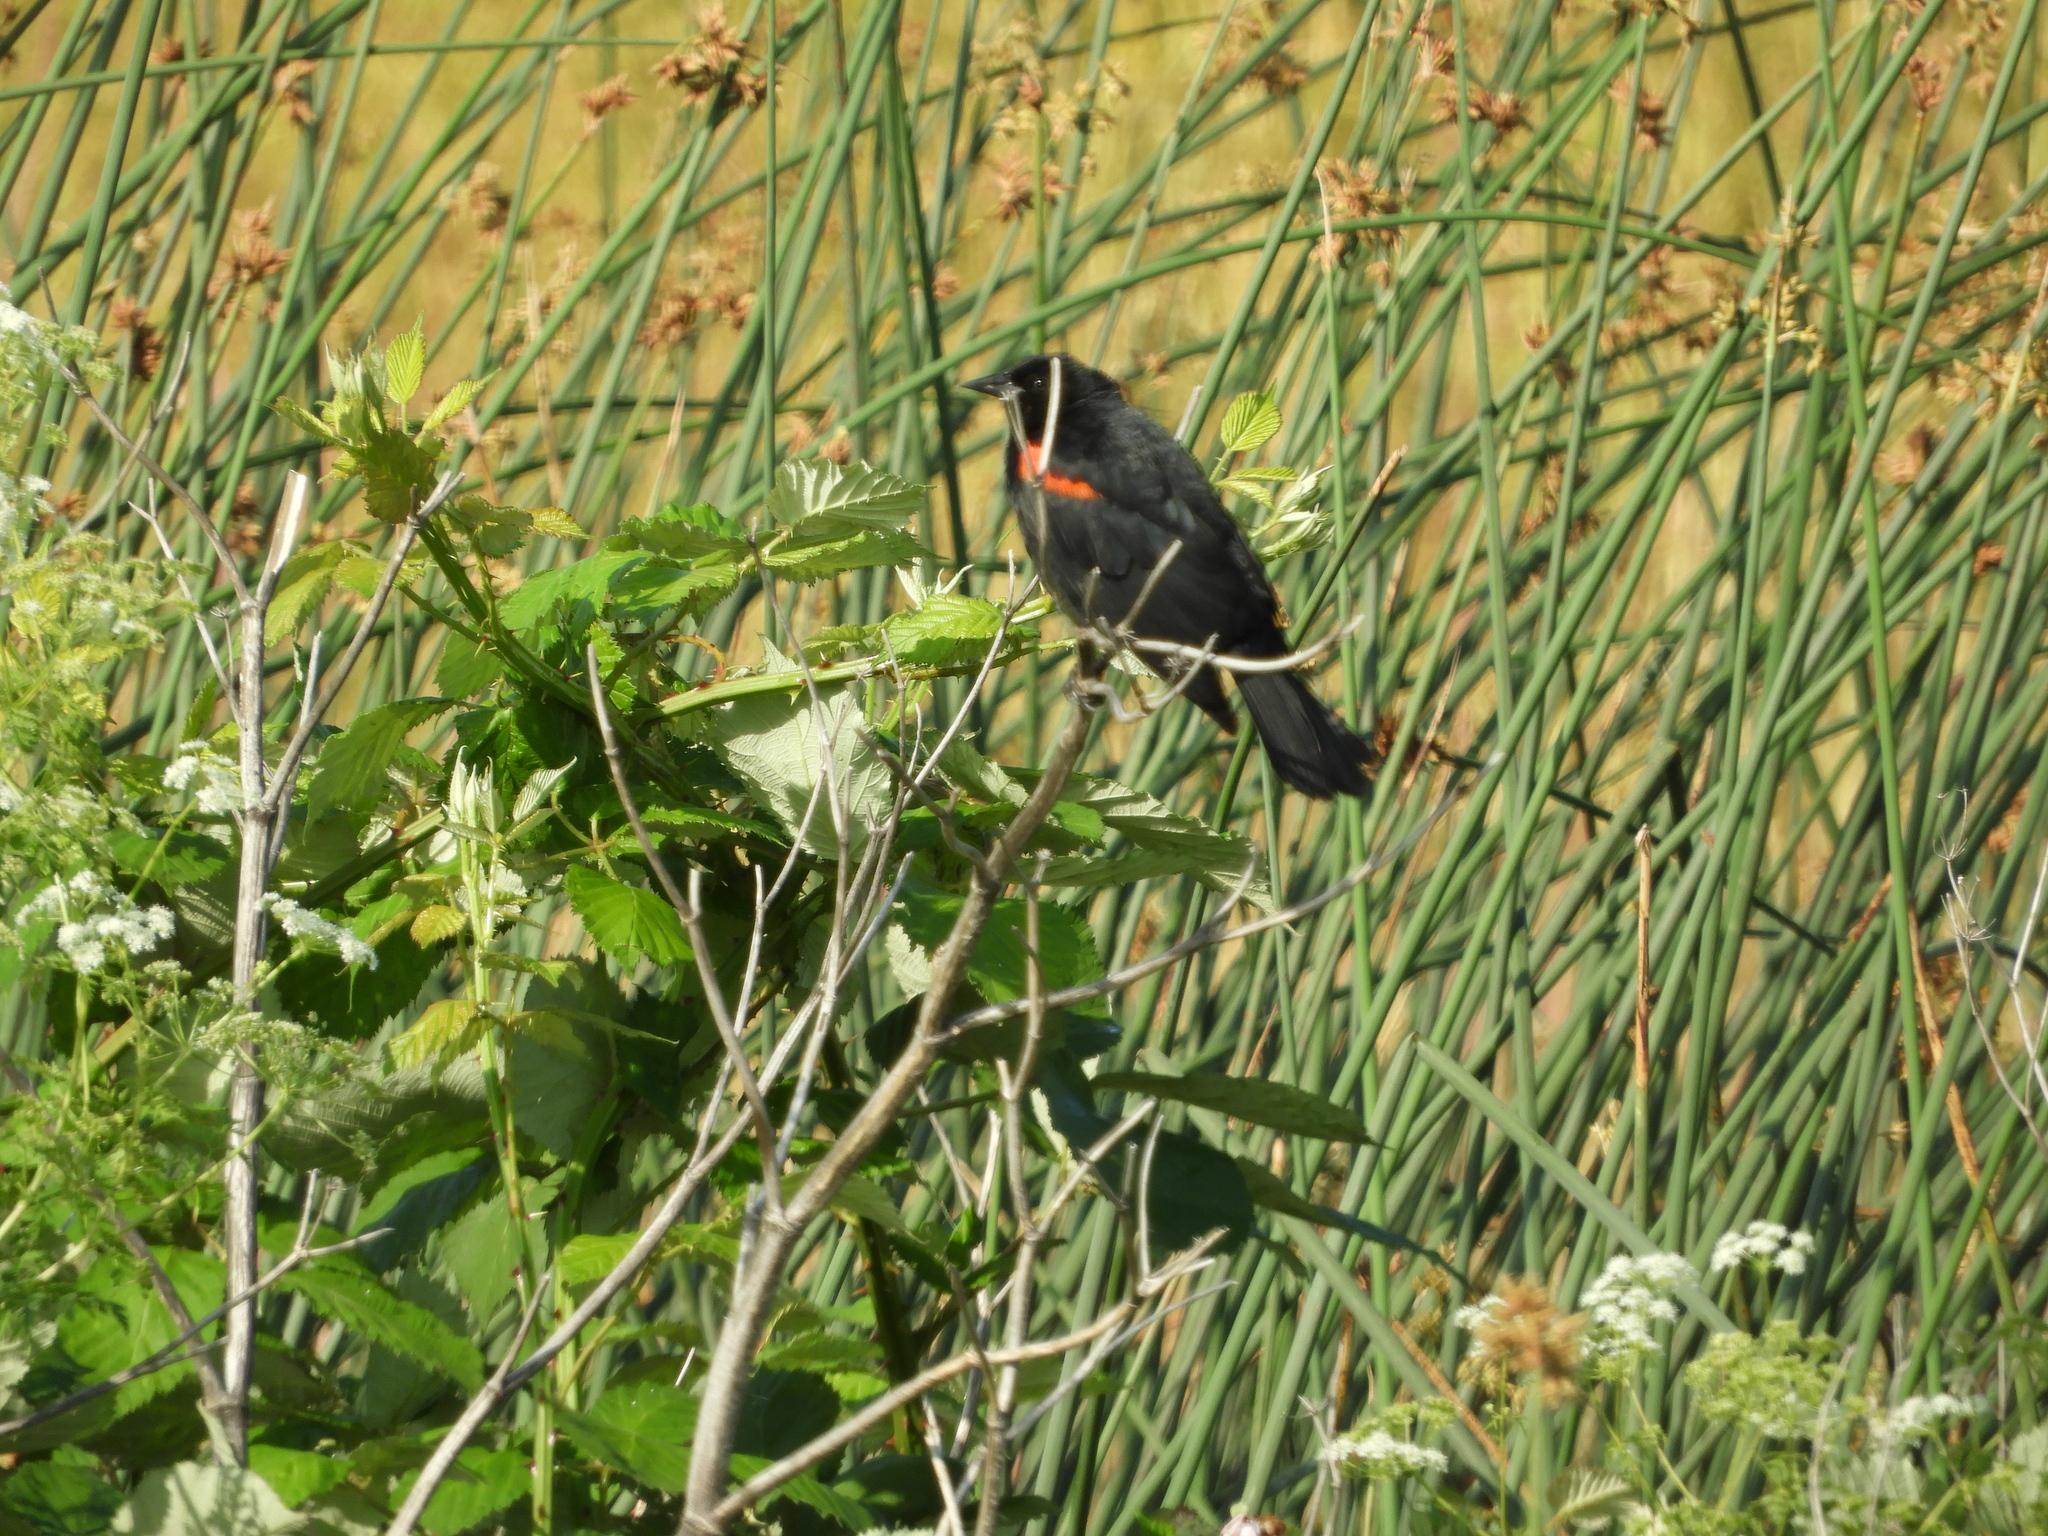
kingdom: Animalia
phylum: Chordata
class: Aves
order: Passeriformes
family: Icteridae
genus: Agelaius
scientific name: Agelaius phoeniceus
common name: Red-winged blackbird
